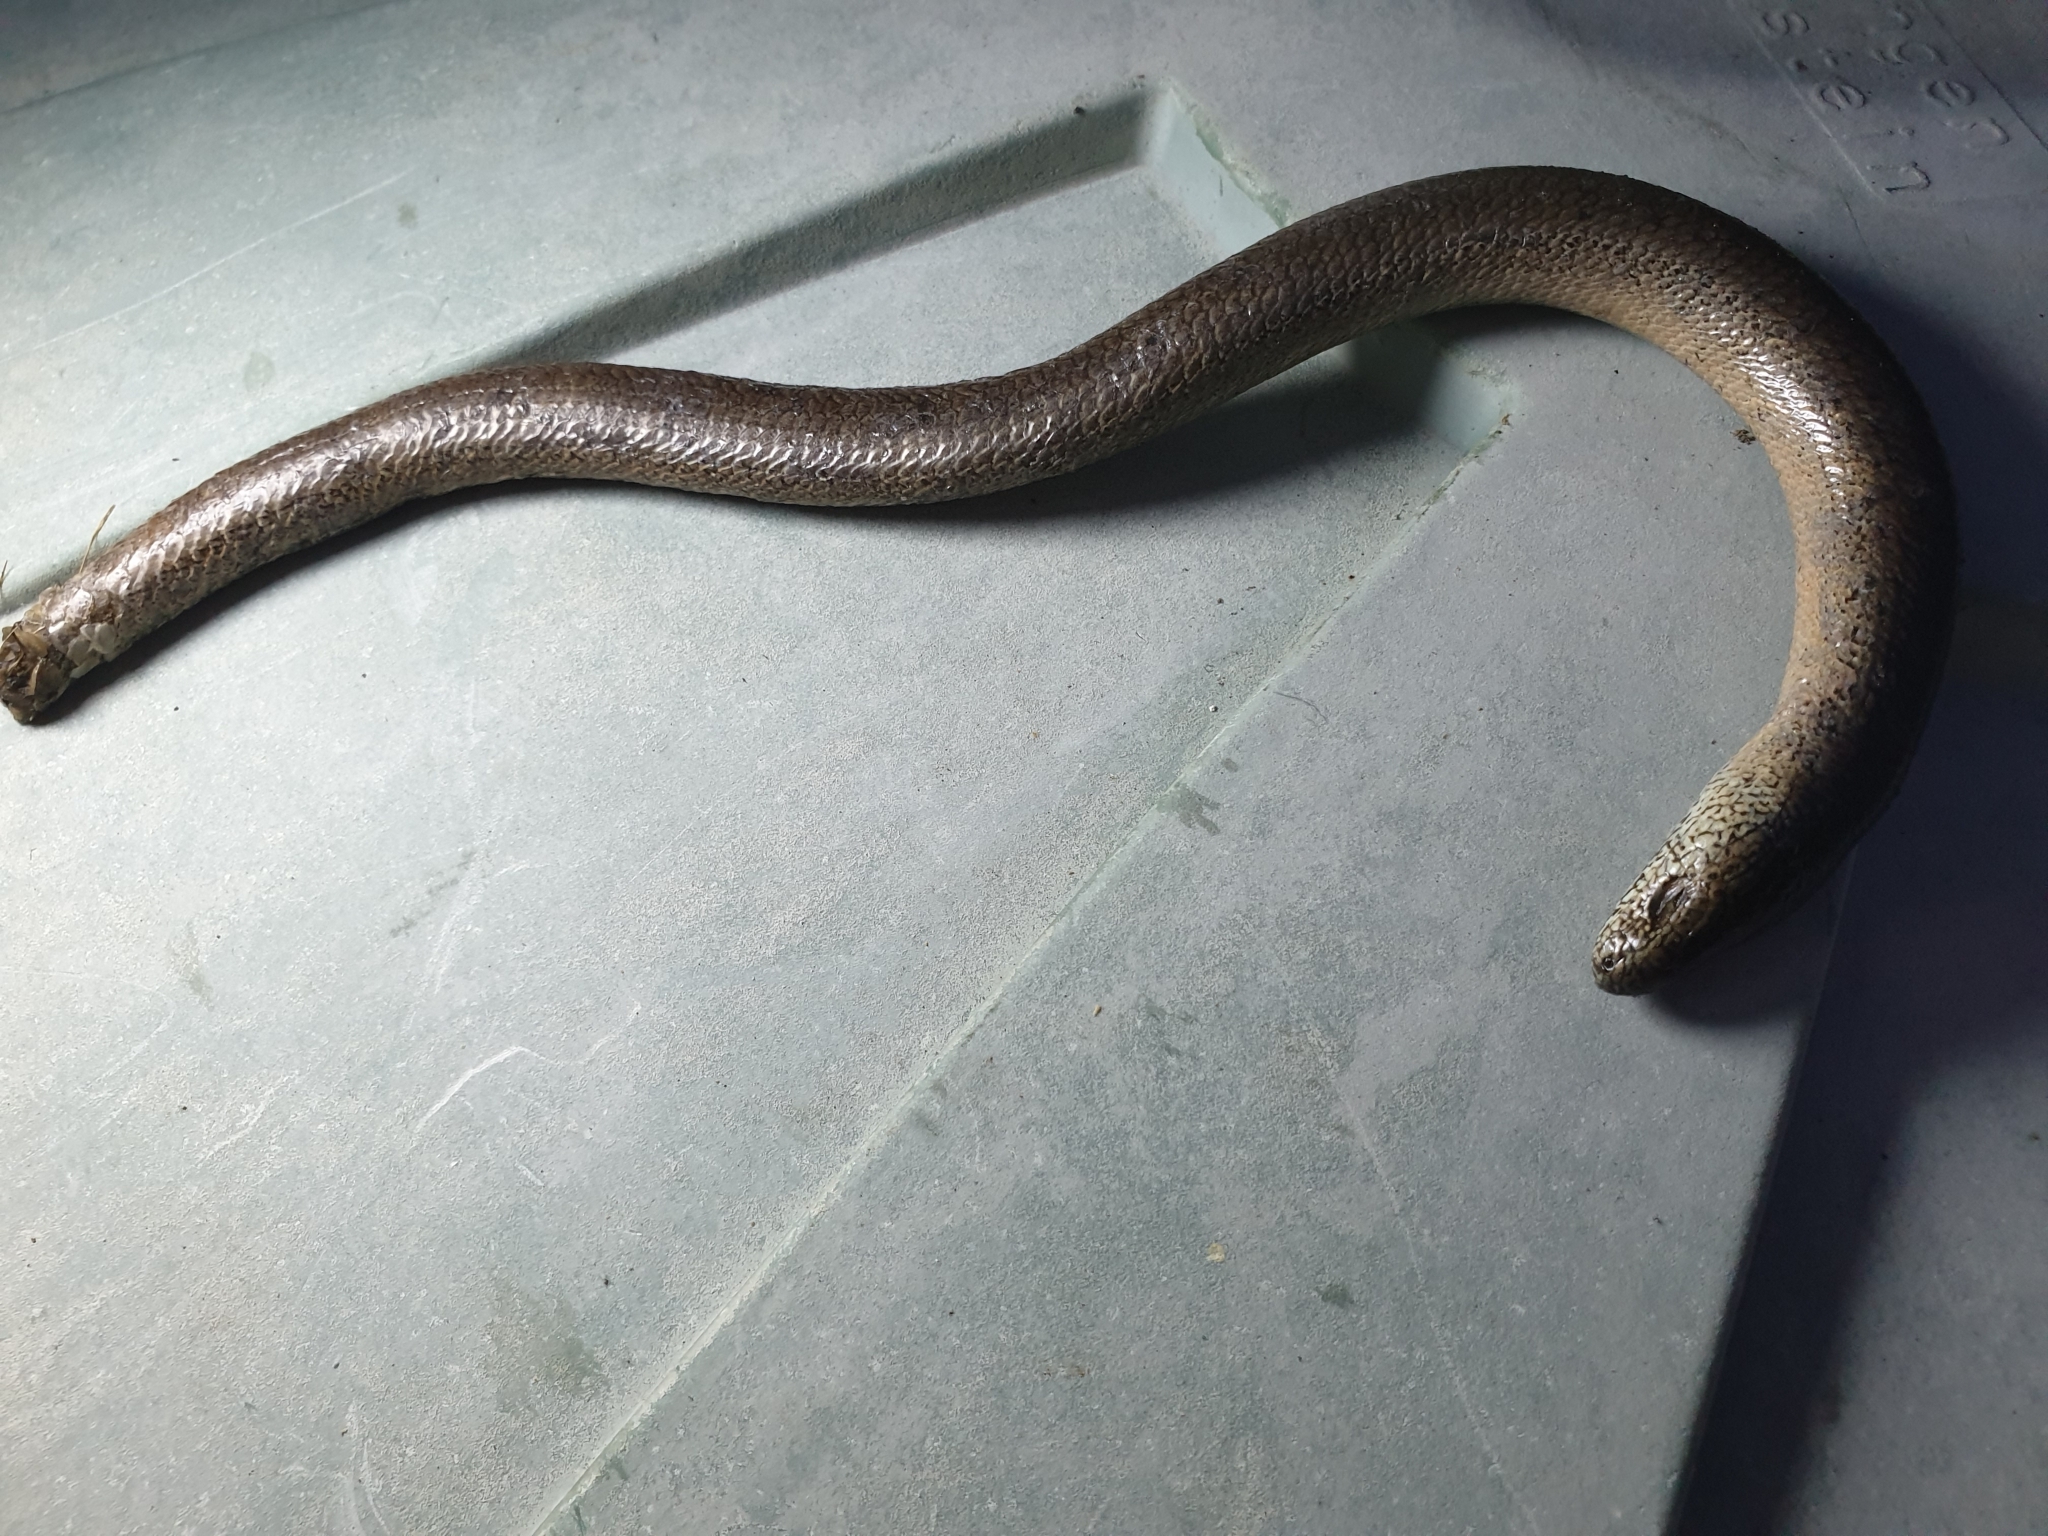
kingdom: Animalia
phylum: Chordata
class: Squamata
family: Anguidae
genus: Anguis
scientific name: Anguis fragilis
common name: Slow worm
